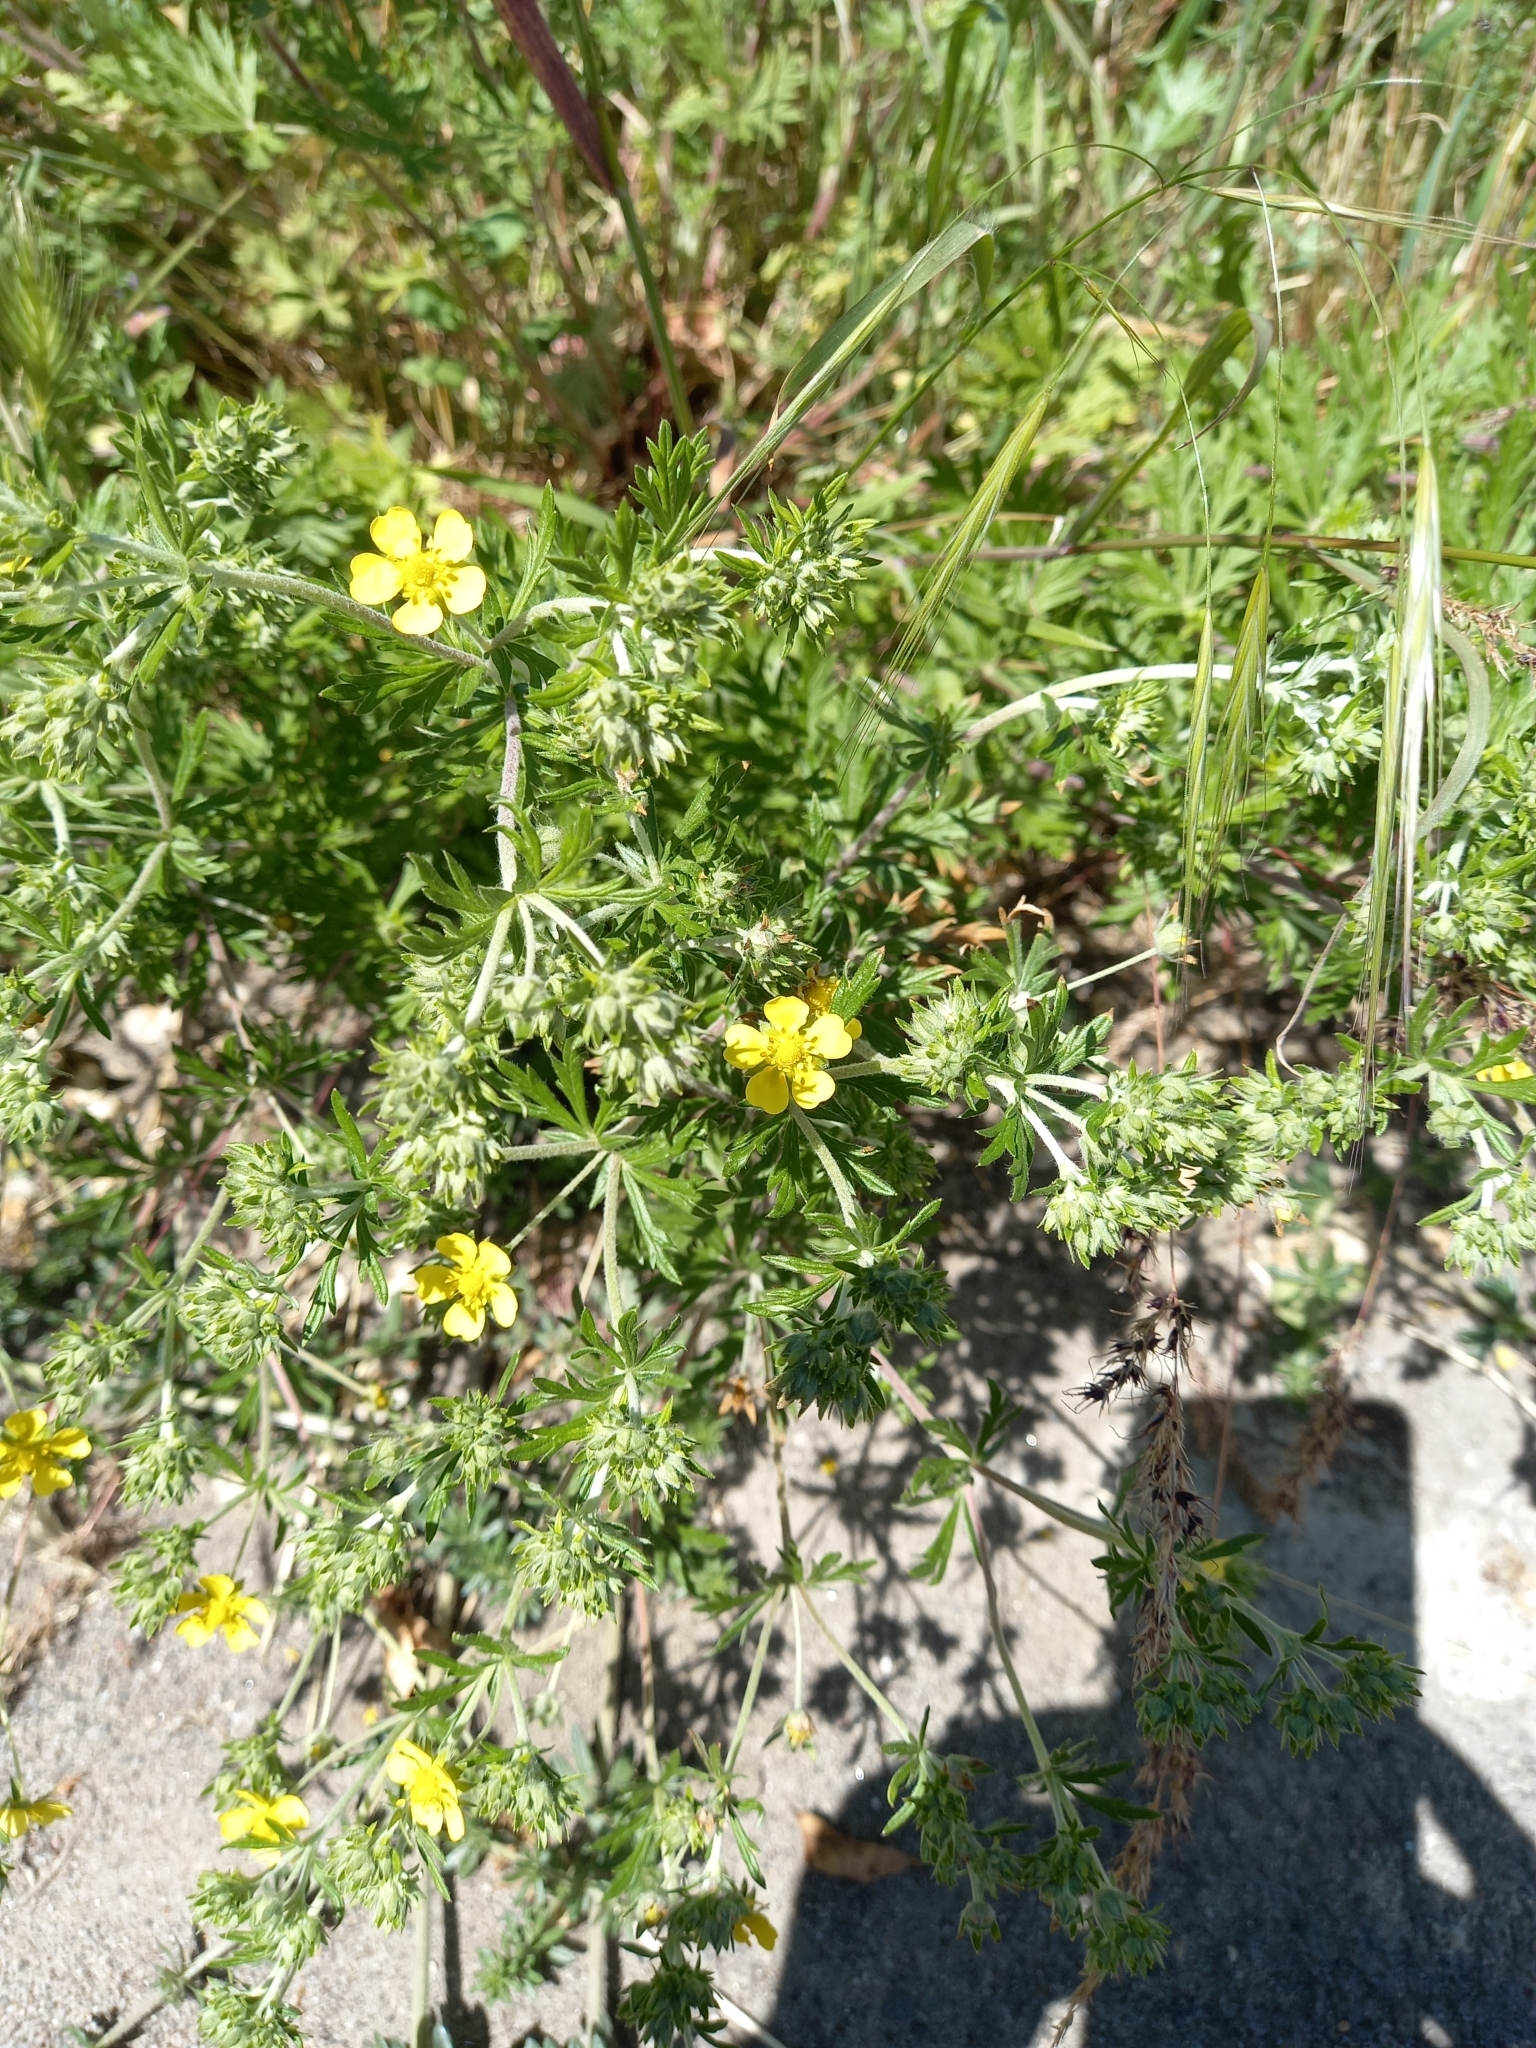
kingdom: Plantae
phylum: Tracheophyta
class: Magnoliopsida
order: Rosales
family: Rosaceae
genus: Potentilla
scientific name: Potentilla argentea
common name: Hoary cinquefoil
